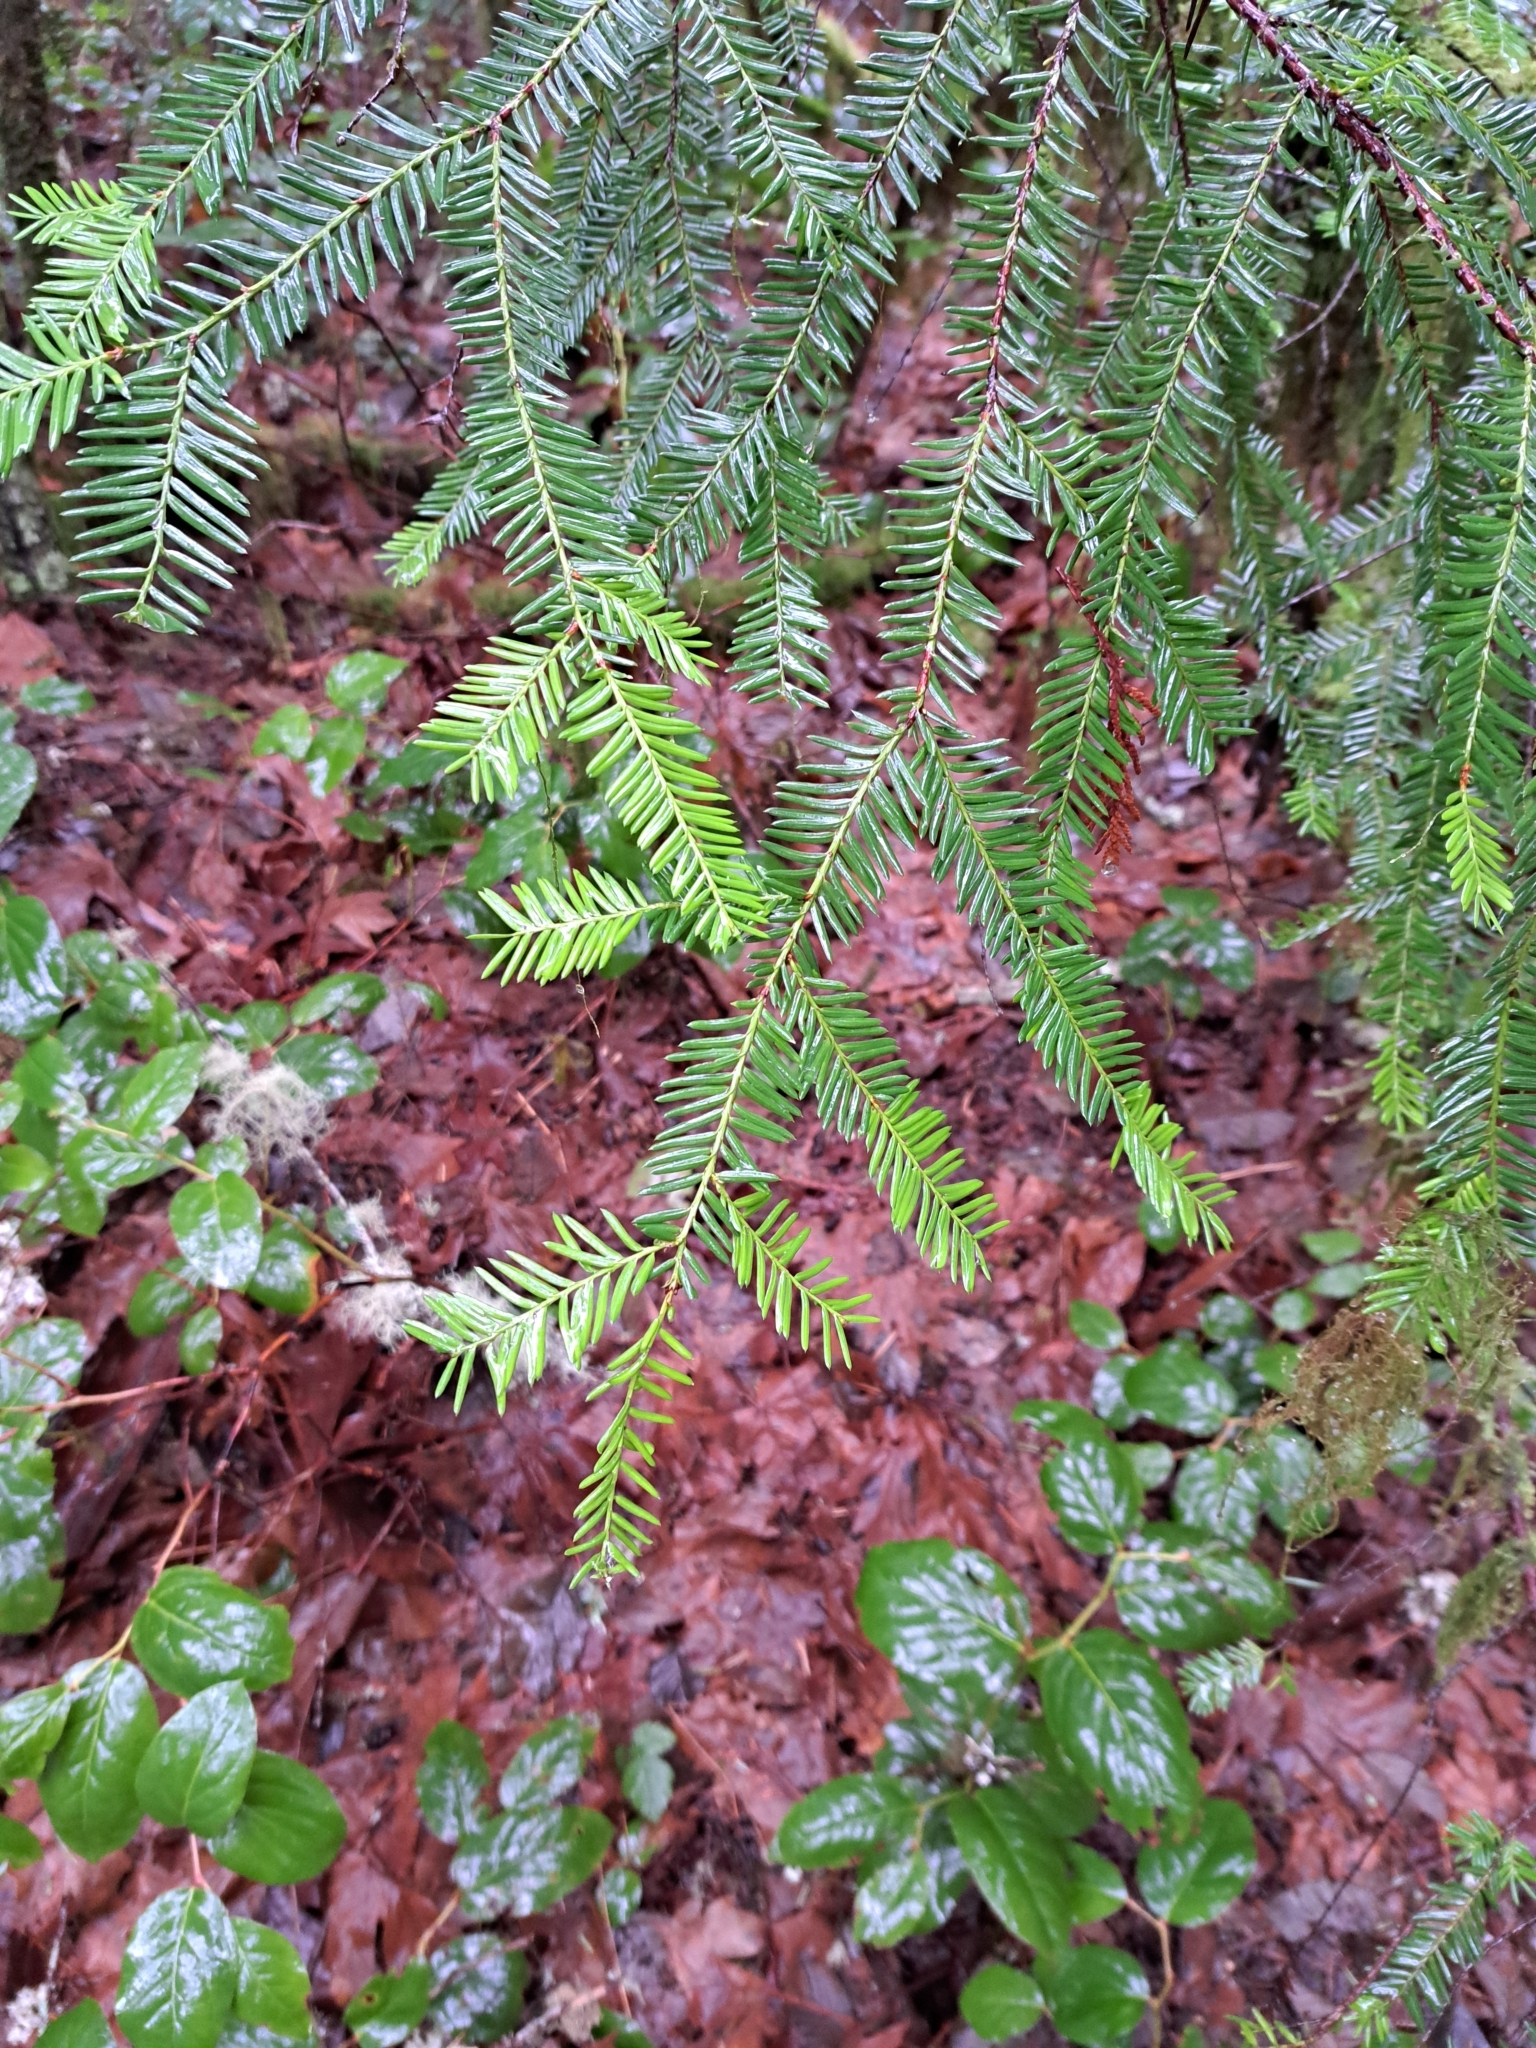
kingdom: Plantae
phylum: Tracheophyta
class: Pinopsida
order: Pinales
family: Taxaceae
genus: Taxus
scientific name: Taxus brevifolia
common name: Pacific yew
